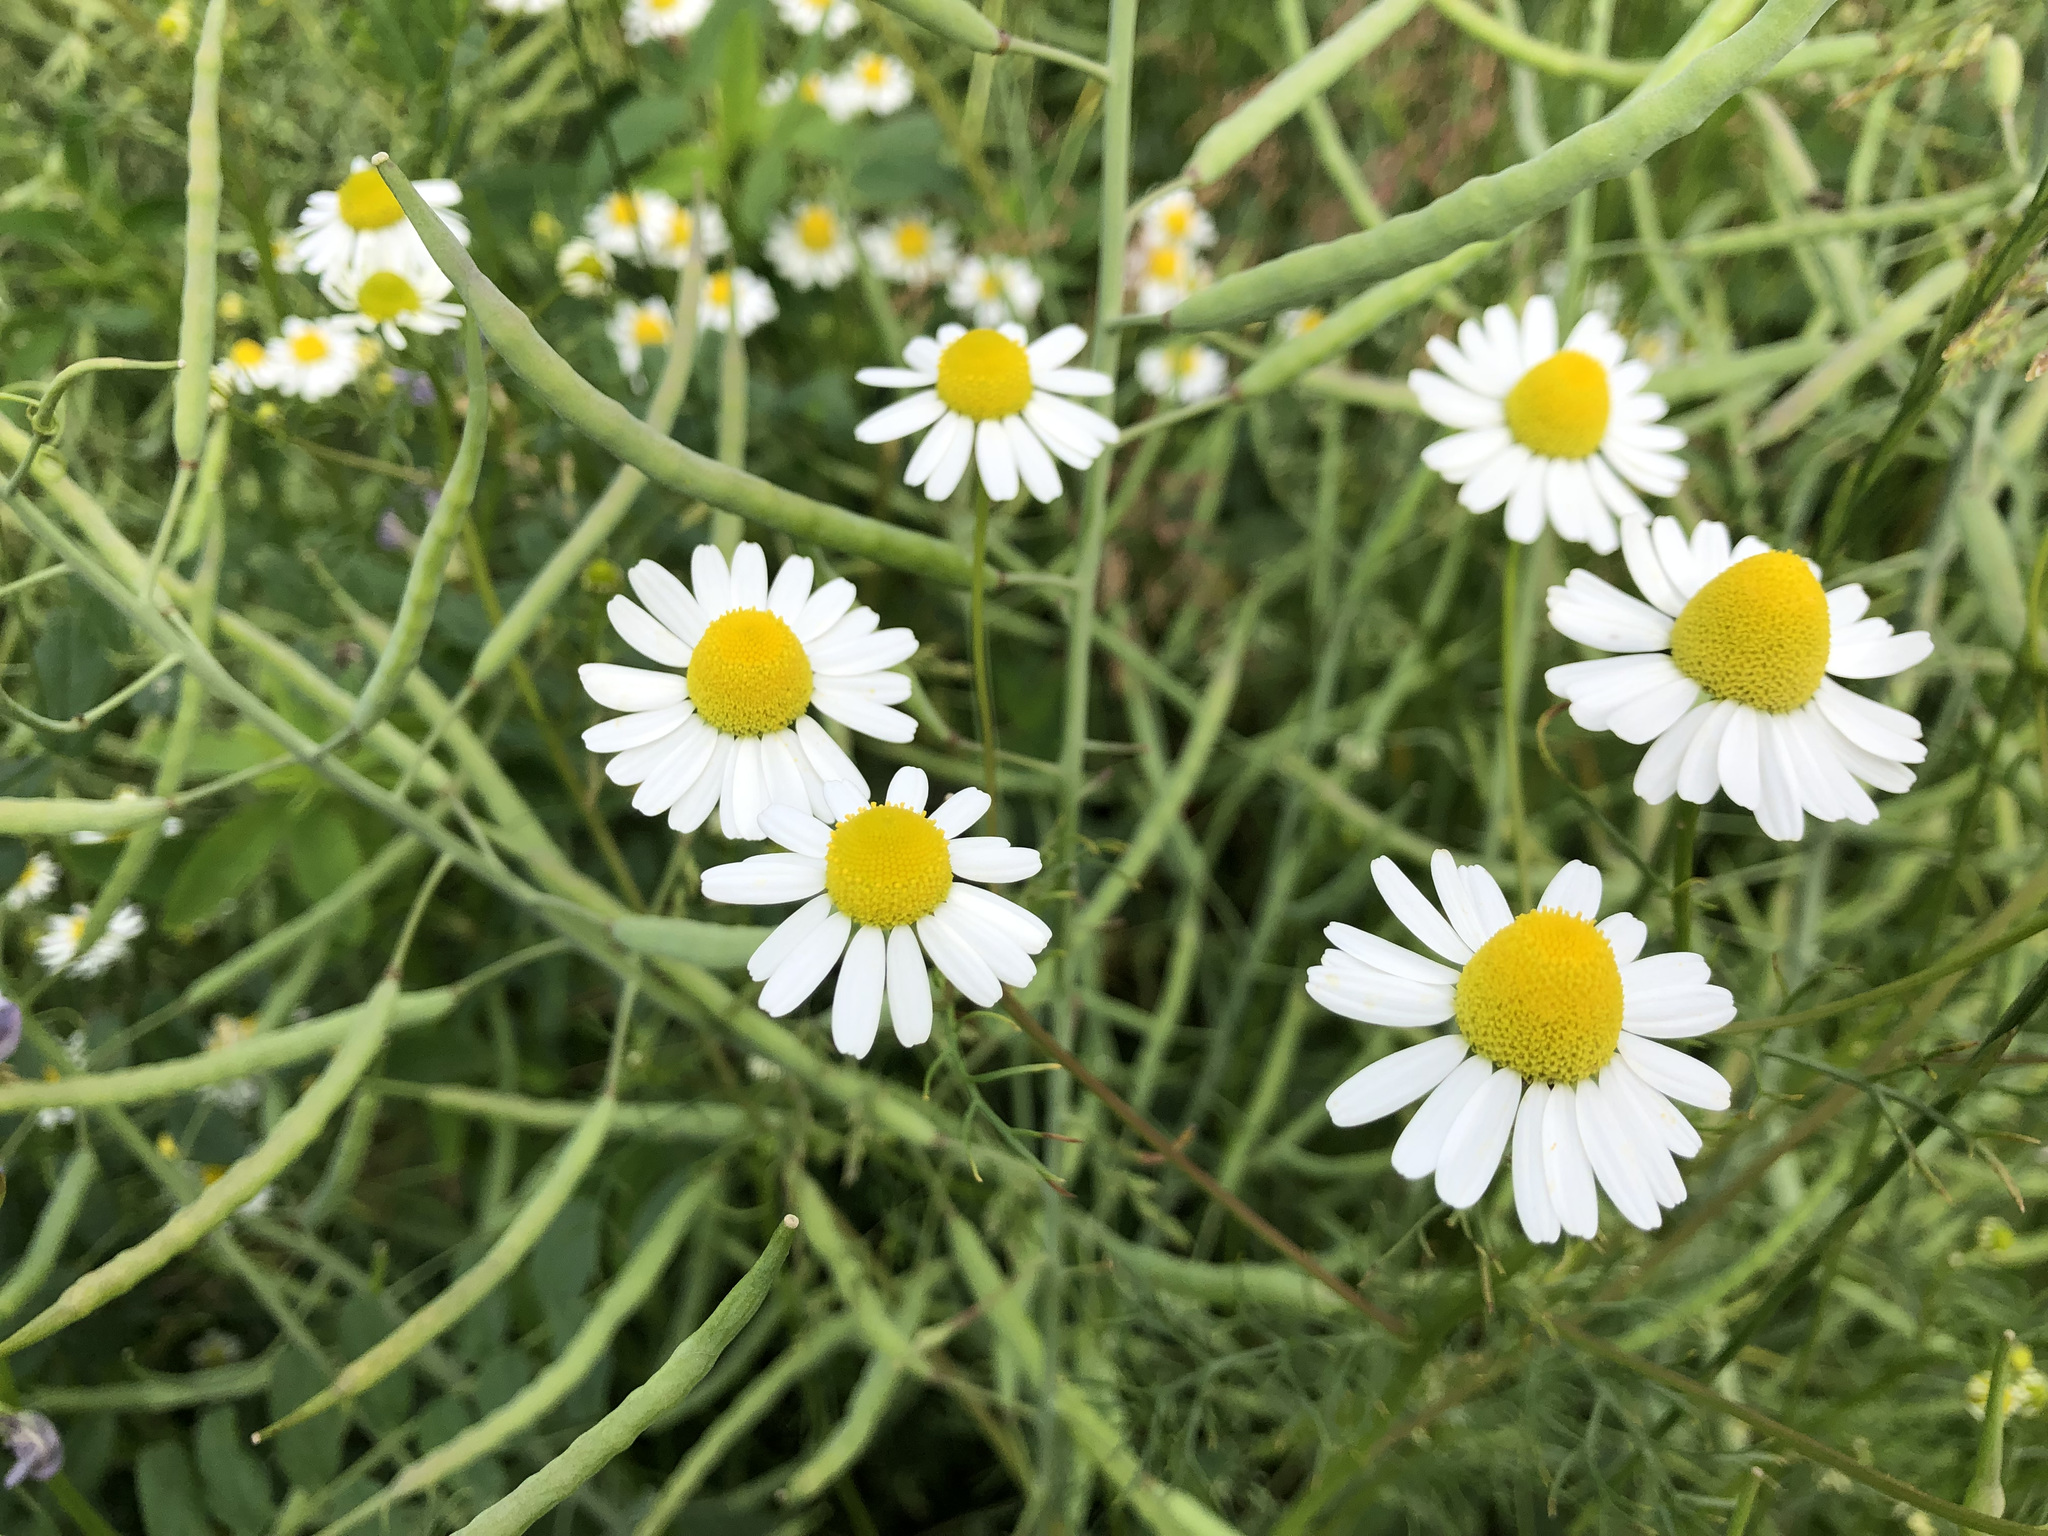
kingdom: Plantae
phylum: Tracheophyta
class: Magnoliopsida
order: Asterales
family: Asteraceae
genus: Matricaria
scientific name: Matricaria chamomilla
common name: Scented mayweed
